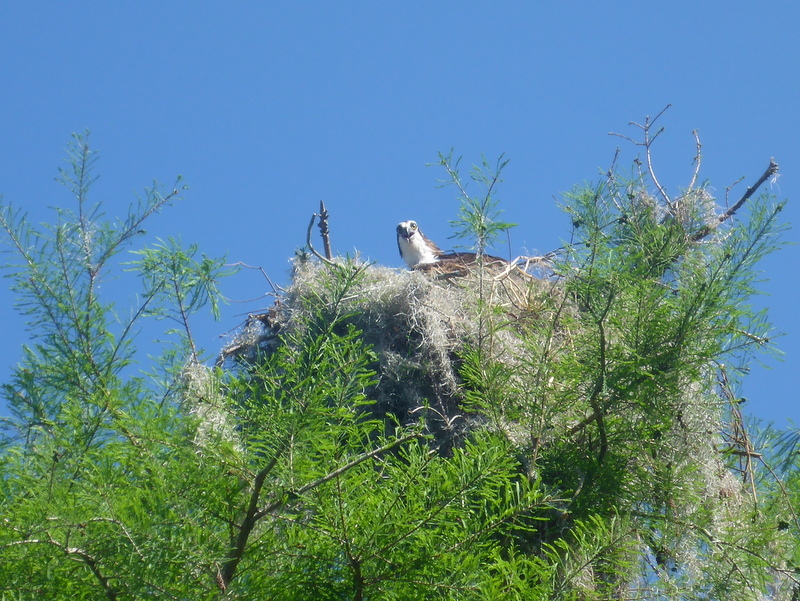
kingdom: Animalia
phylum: Chordata
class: Aves
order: Accipitriformes
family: Pandionidae
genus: Pandion
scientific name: Pandion haliaetus
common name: Osprey
